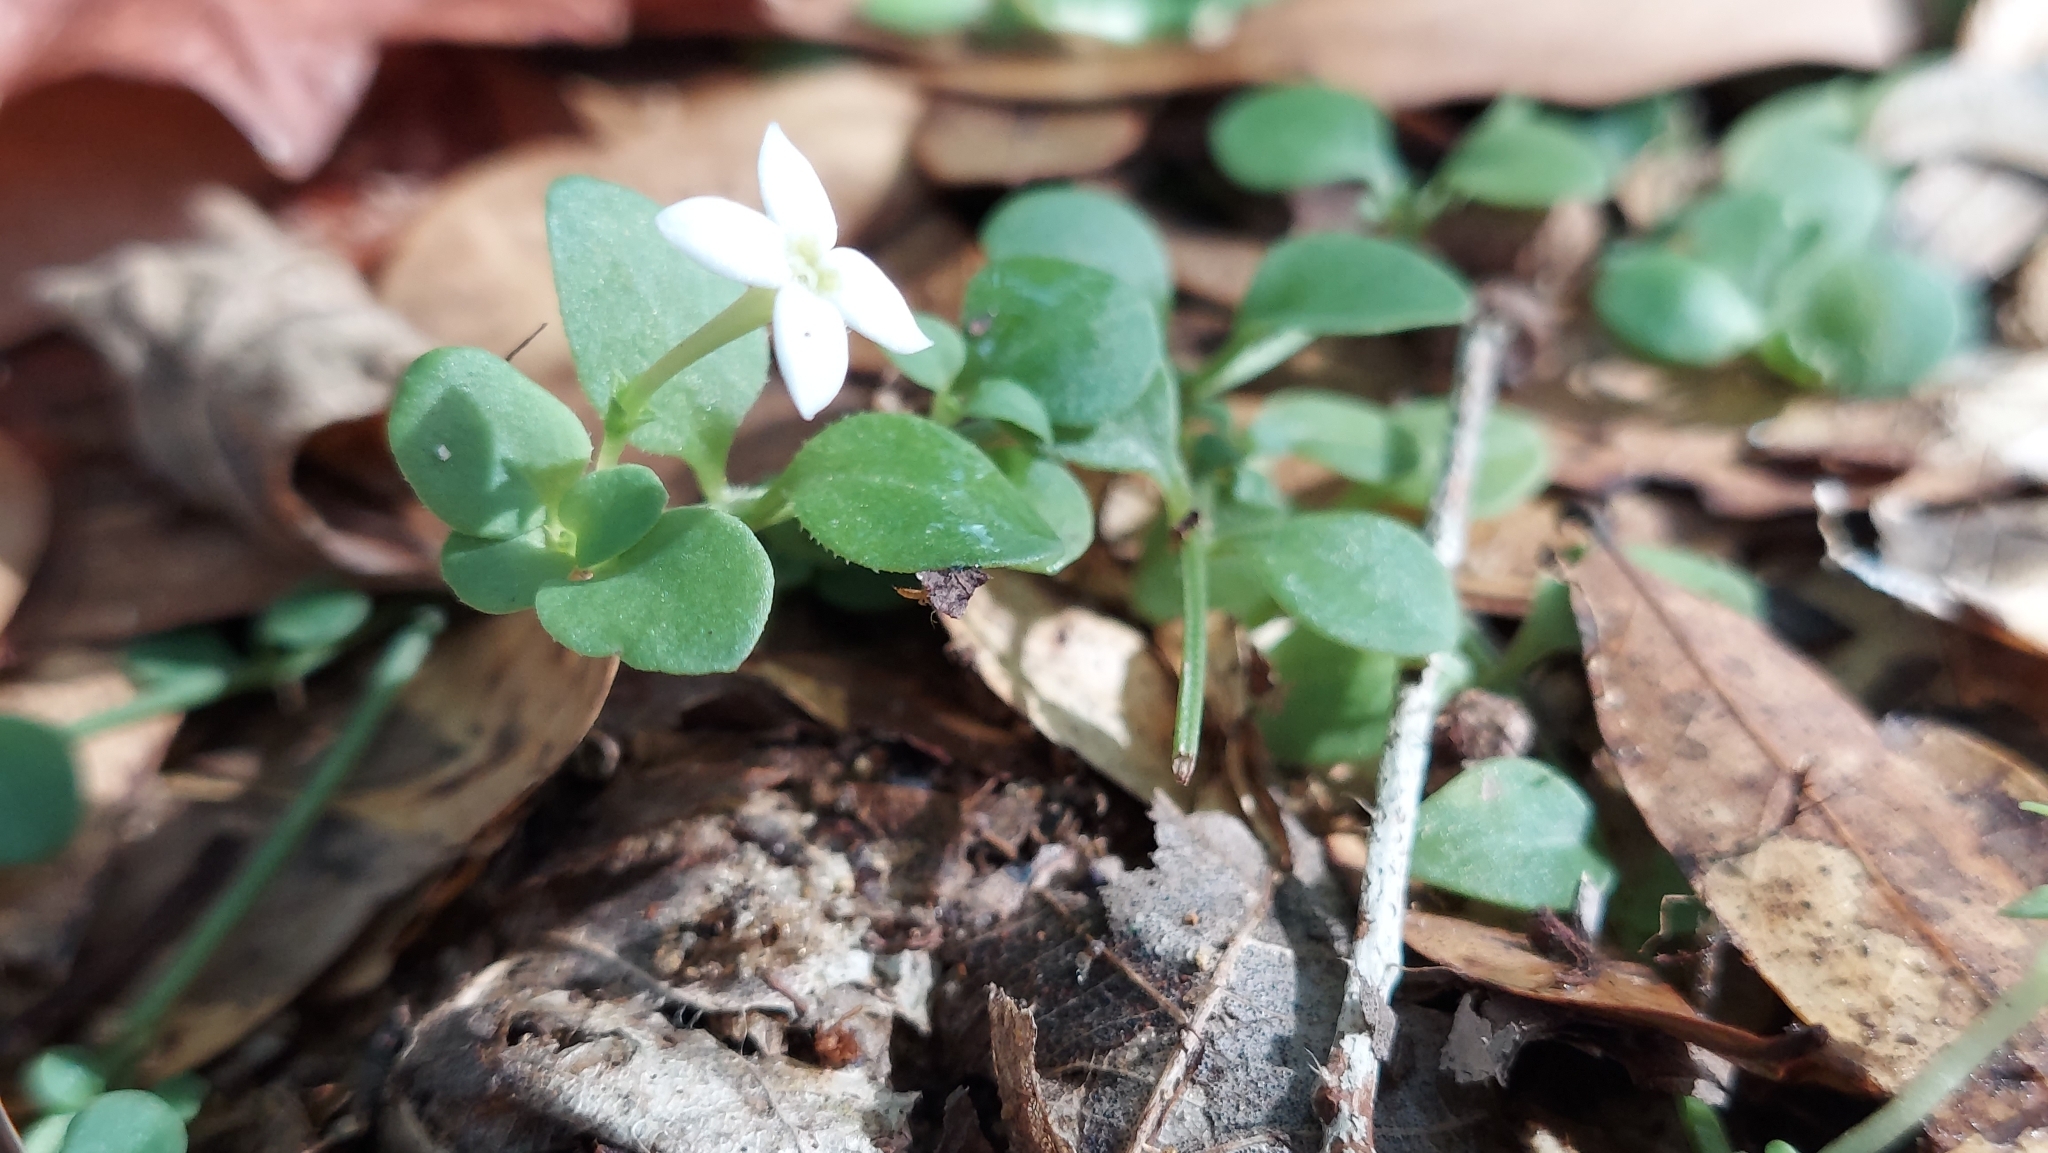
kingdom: Plantae
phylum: Tracheophyta
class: Magnoliopsida
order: Gentianales
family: Rubiaceae
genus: Houstonia
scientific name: Houstonia procumbens
